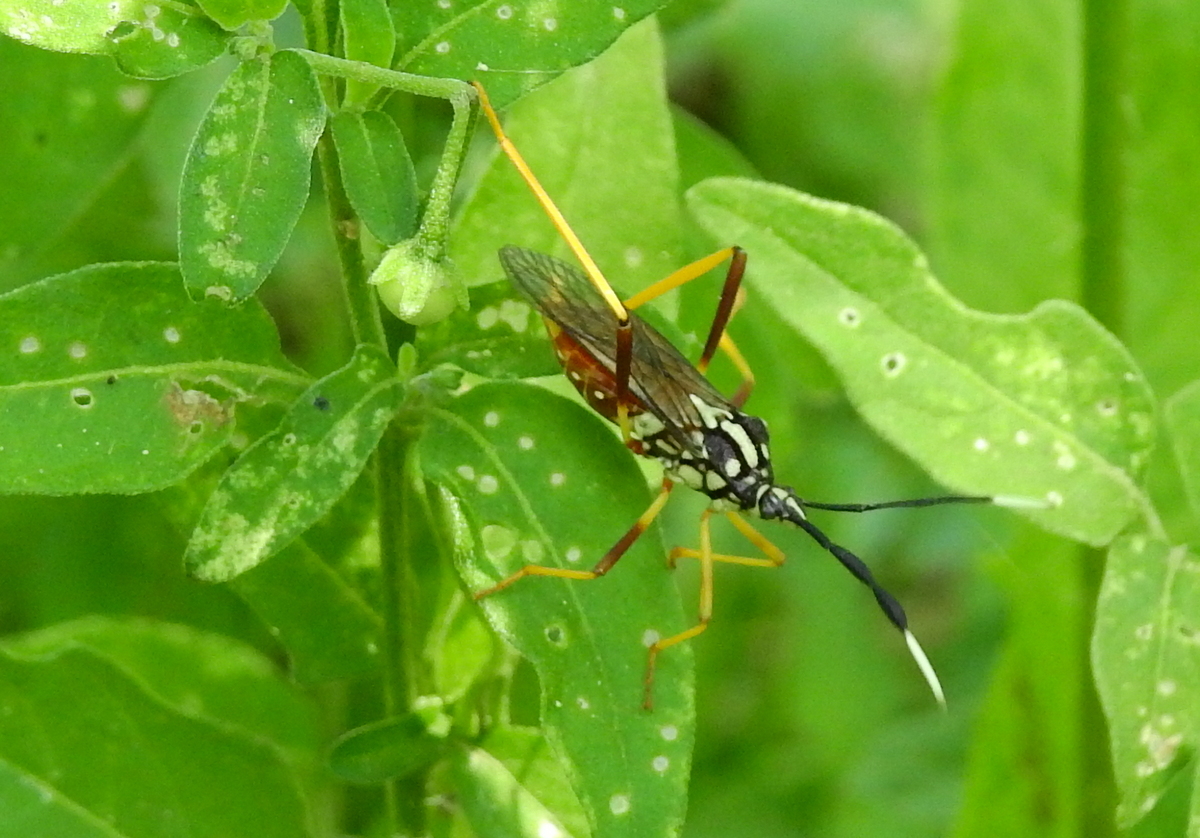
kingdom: Animalia
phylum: Arthropoda
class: Insecta
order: Hemiptera
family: Coreidae
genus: Holhymenia
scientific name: Holhymenia histrio
